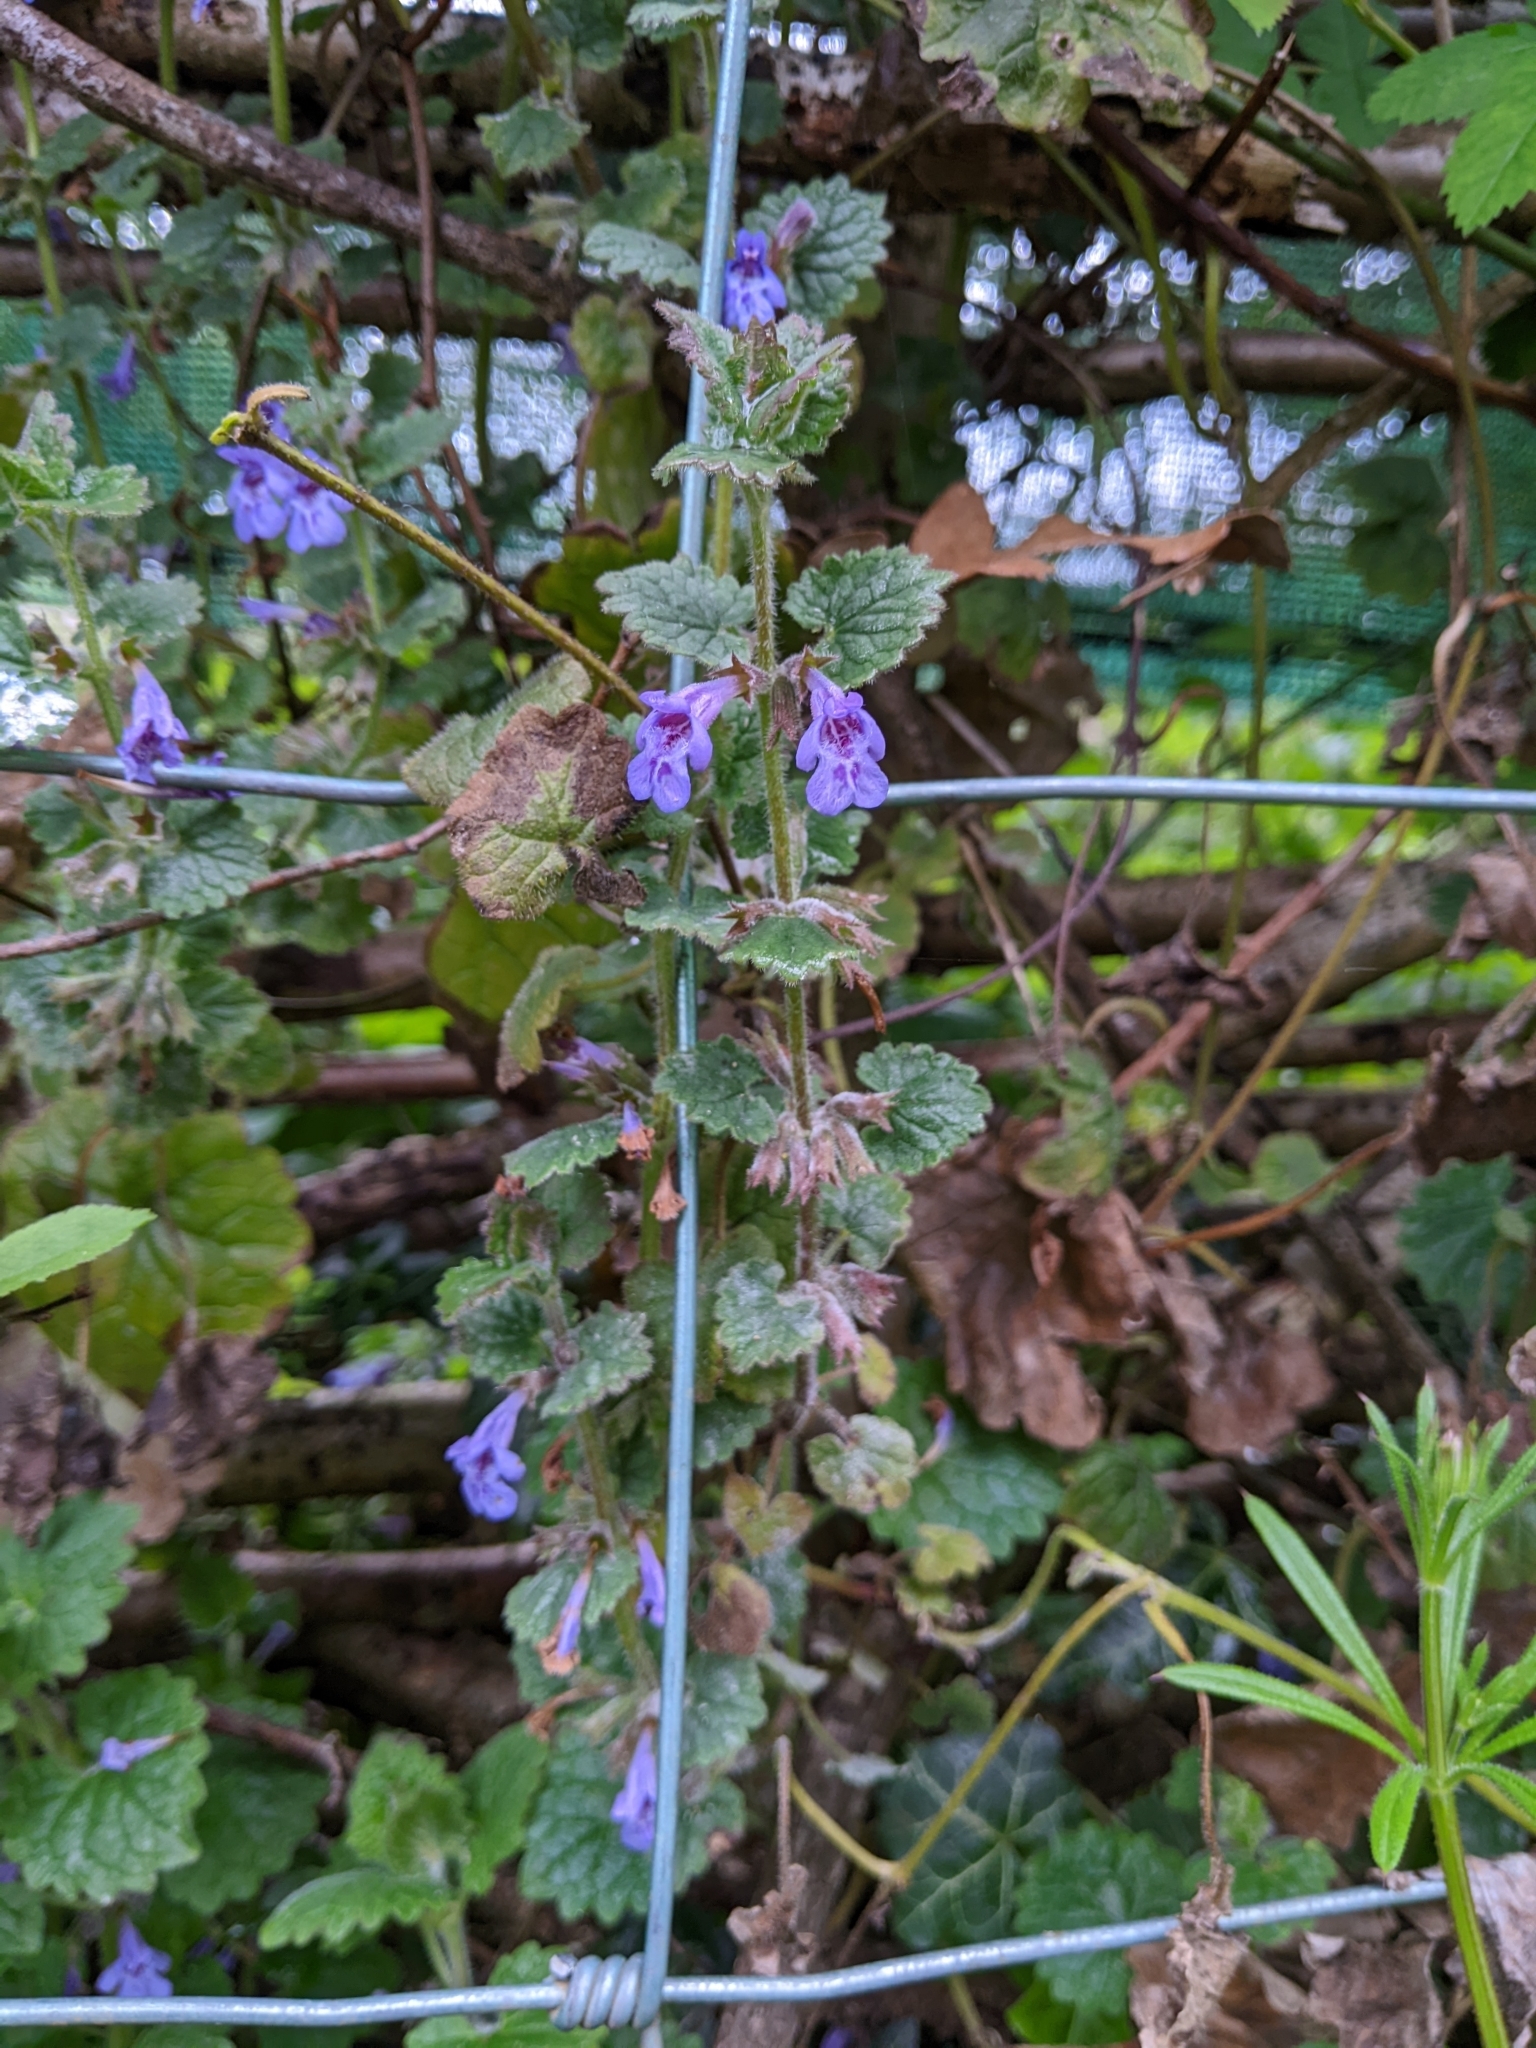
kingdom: Plantae
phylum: Tracheophyta
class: Magnoliopsida
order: Lamiales
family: Lamiaceae
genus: Glechoma
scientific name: Glechoma hederacea
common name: Ground ivy
